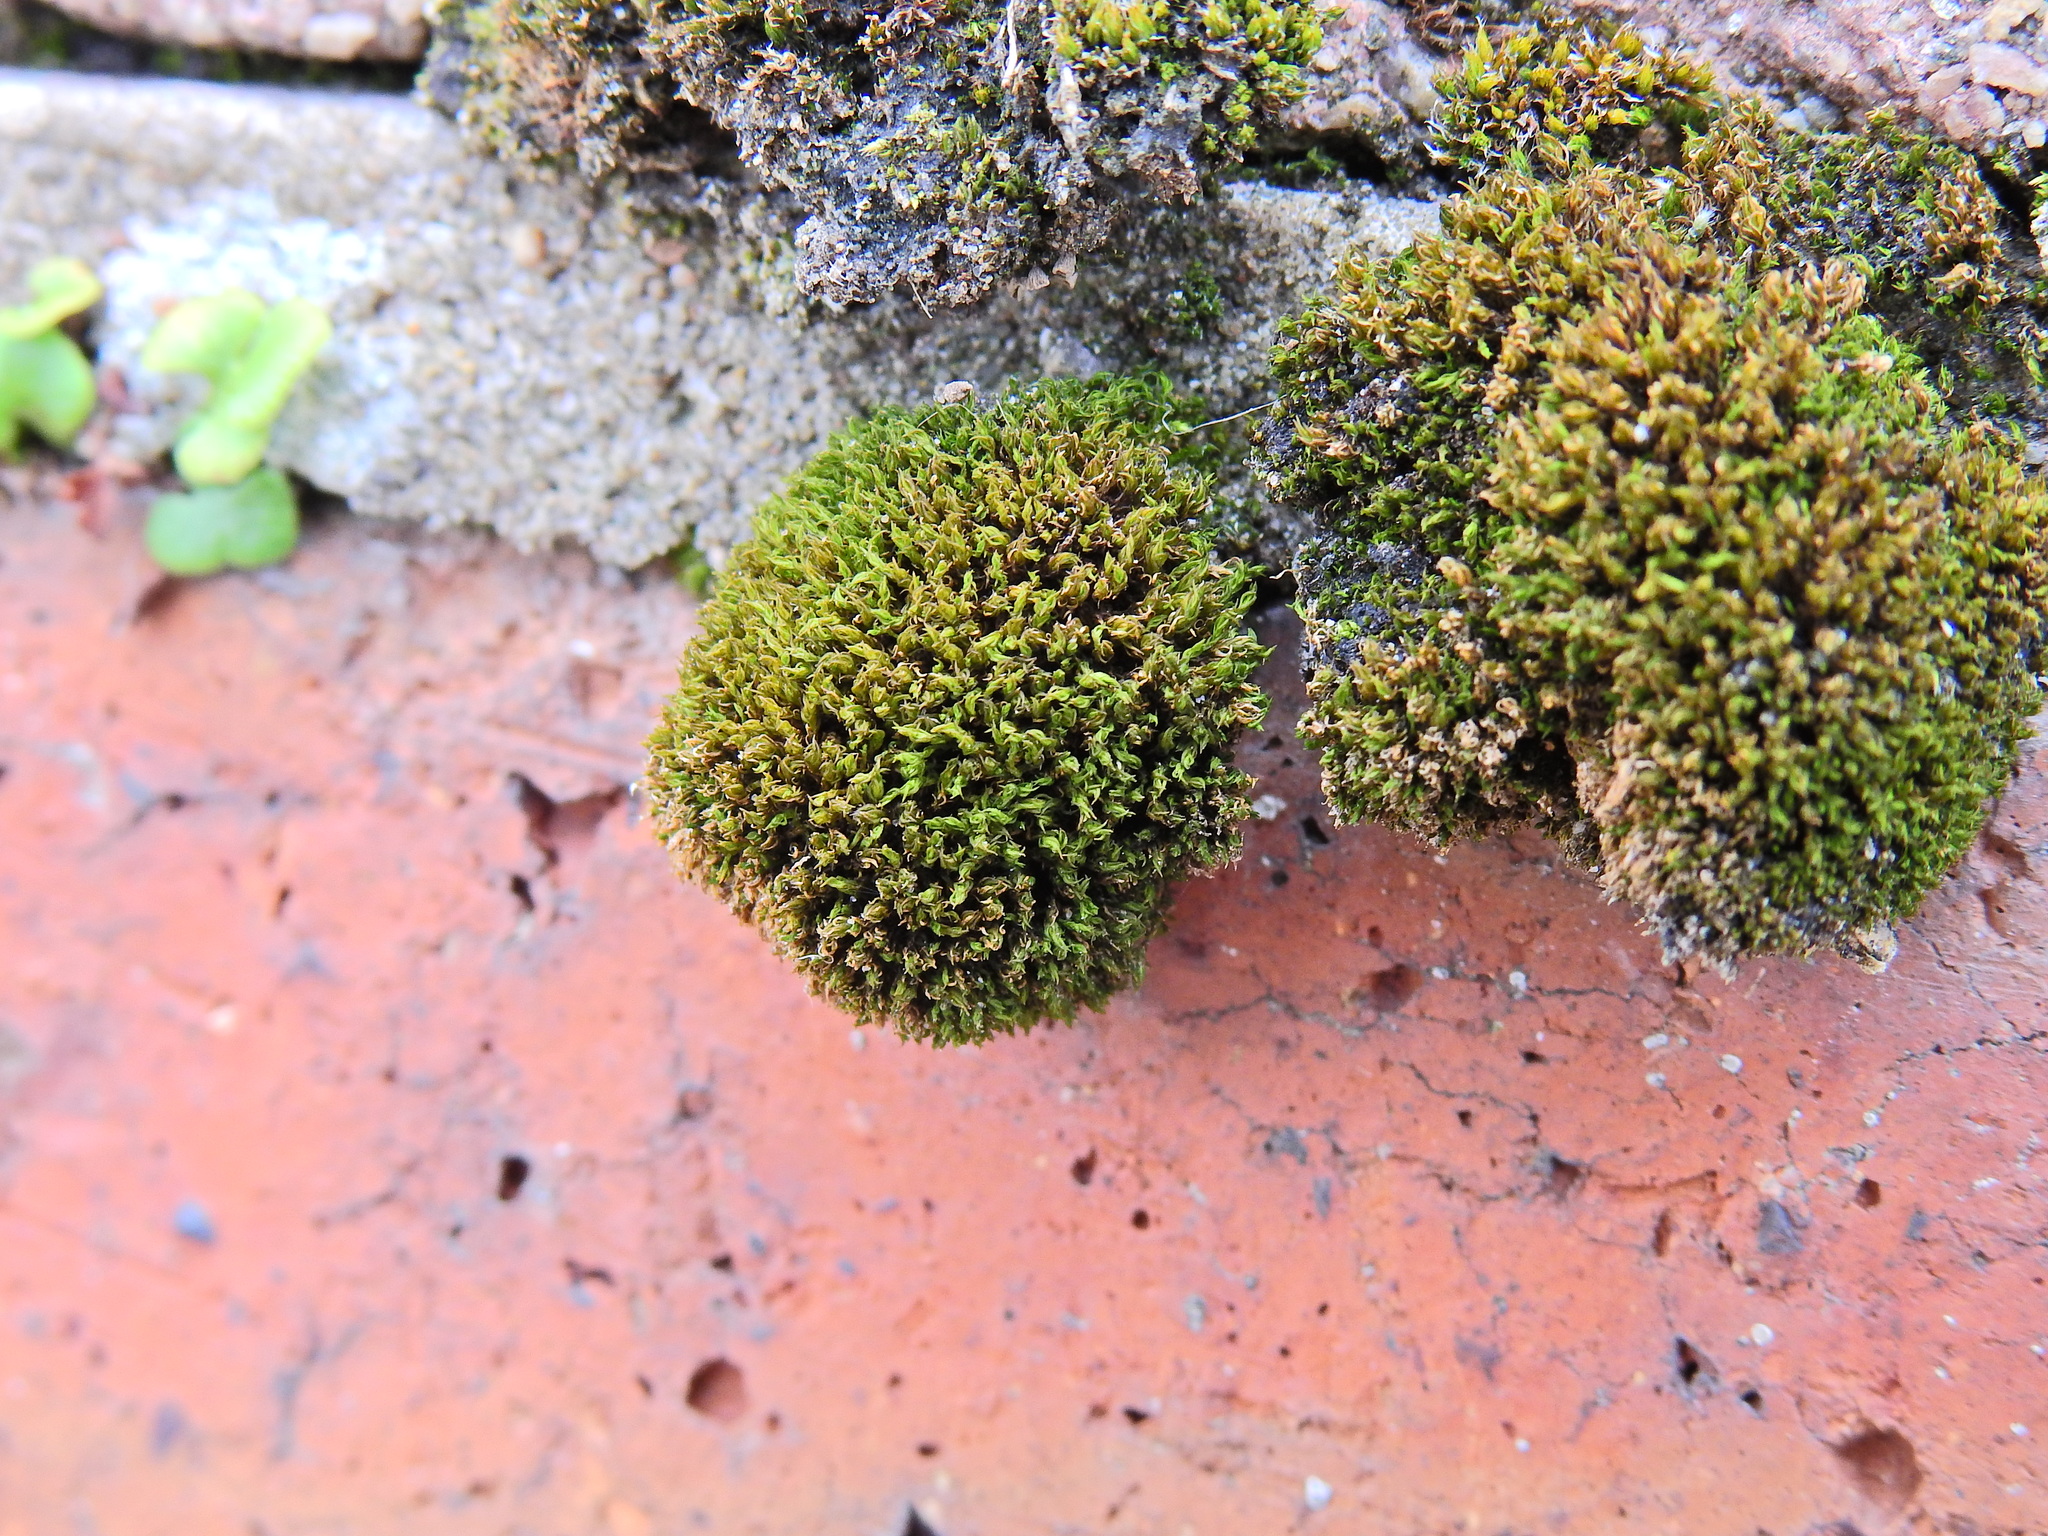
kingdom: Plantae
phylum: Bryophyta
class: Bryopsida
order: Pottiales
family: Pottiaceae
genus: Syntrichia
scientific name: Syntrichia ruralis
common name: Sidewalk screw moss
